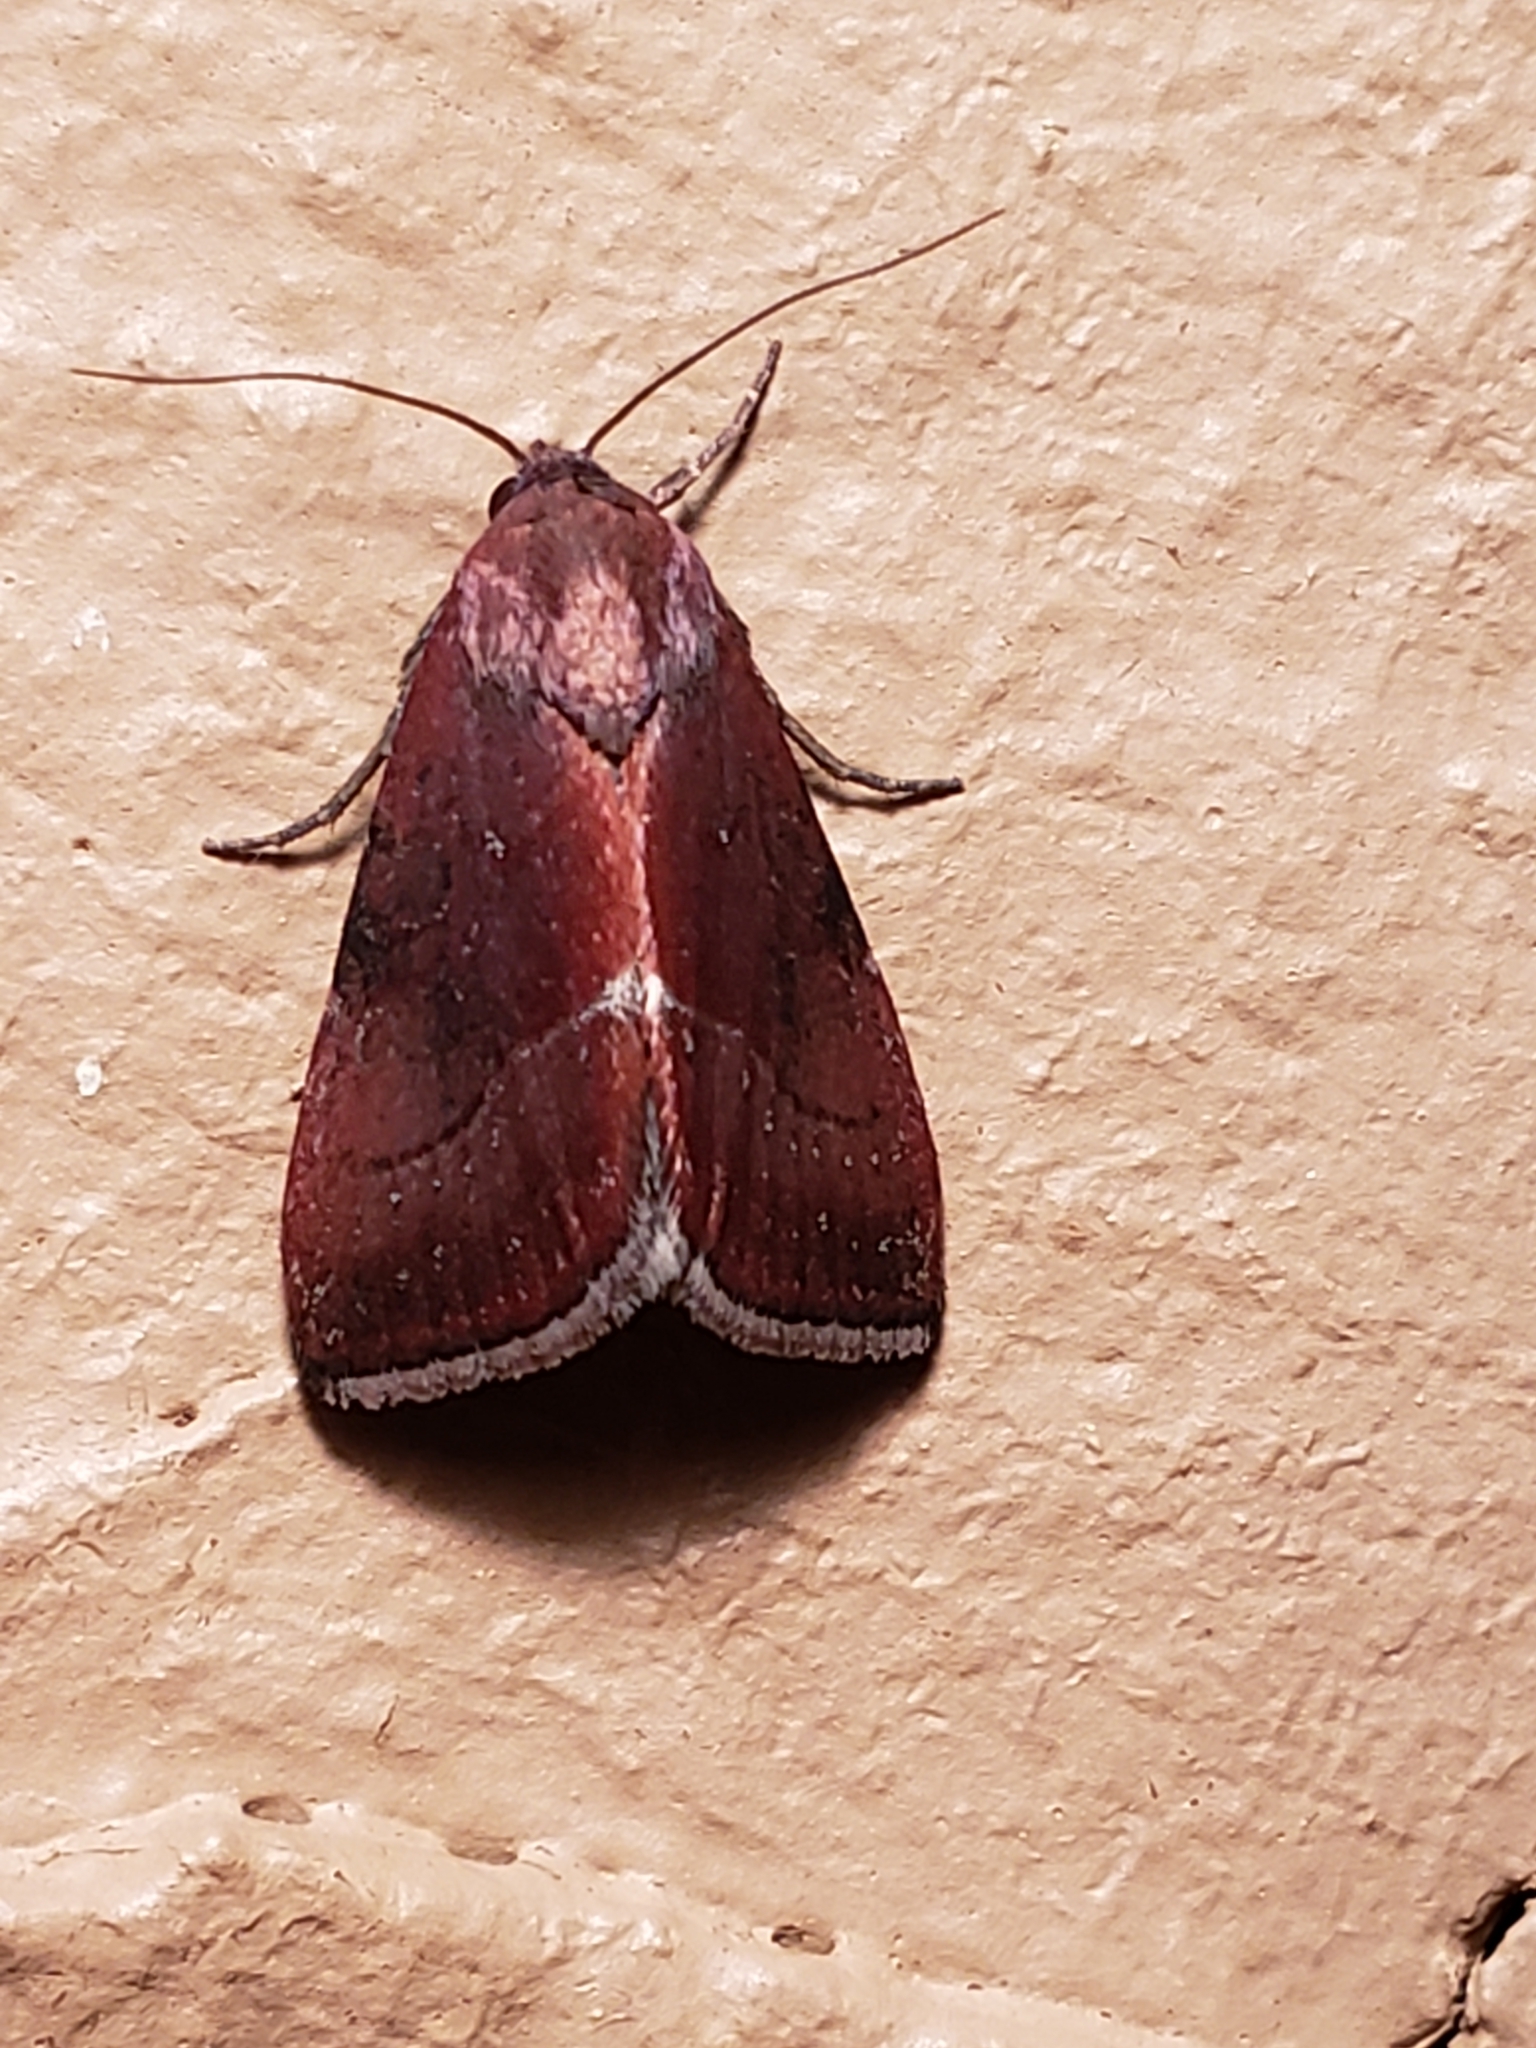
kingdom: Animalia
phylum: Arthropoda
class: Insecta
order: Lepidoptera
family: Noctuidae
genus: Galgula
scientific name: Galgula partita
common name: Wedgeling
